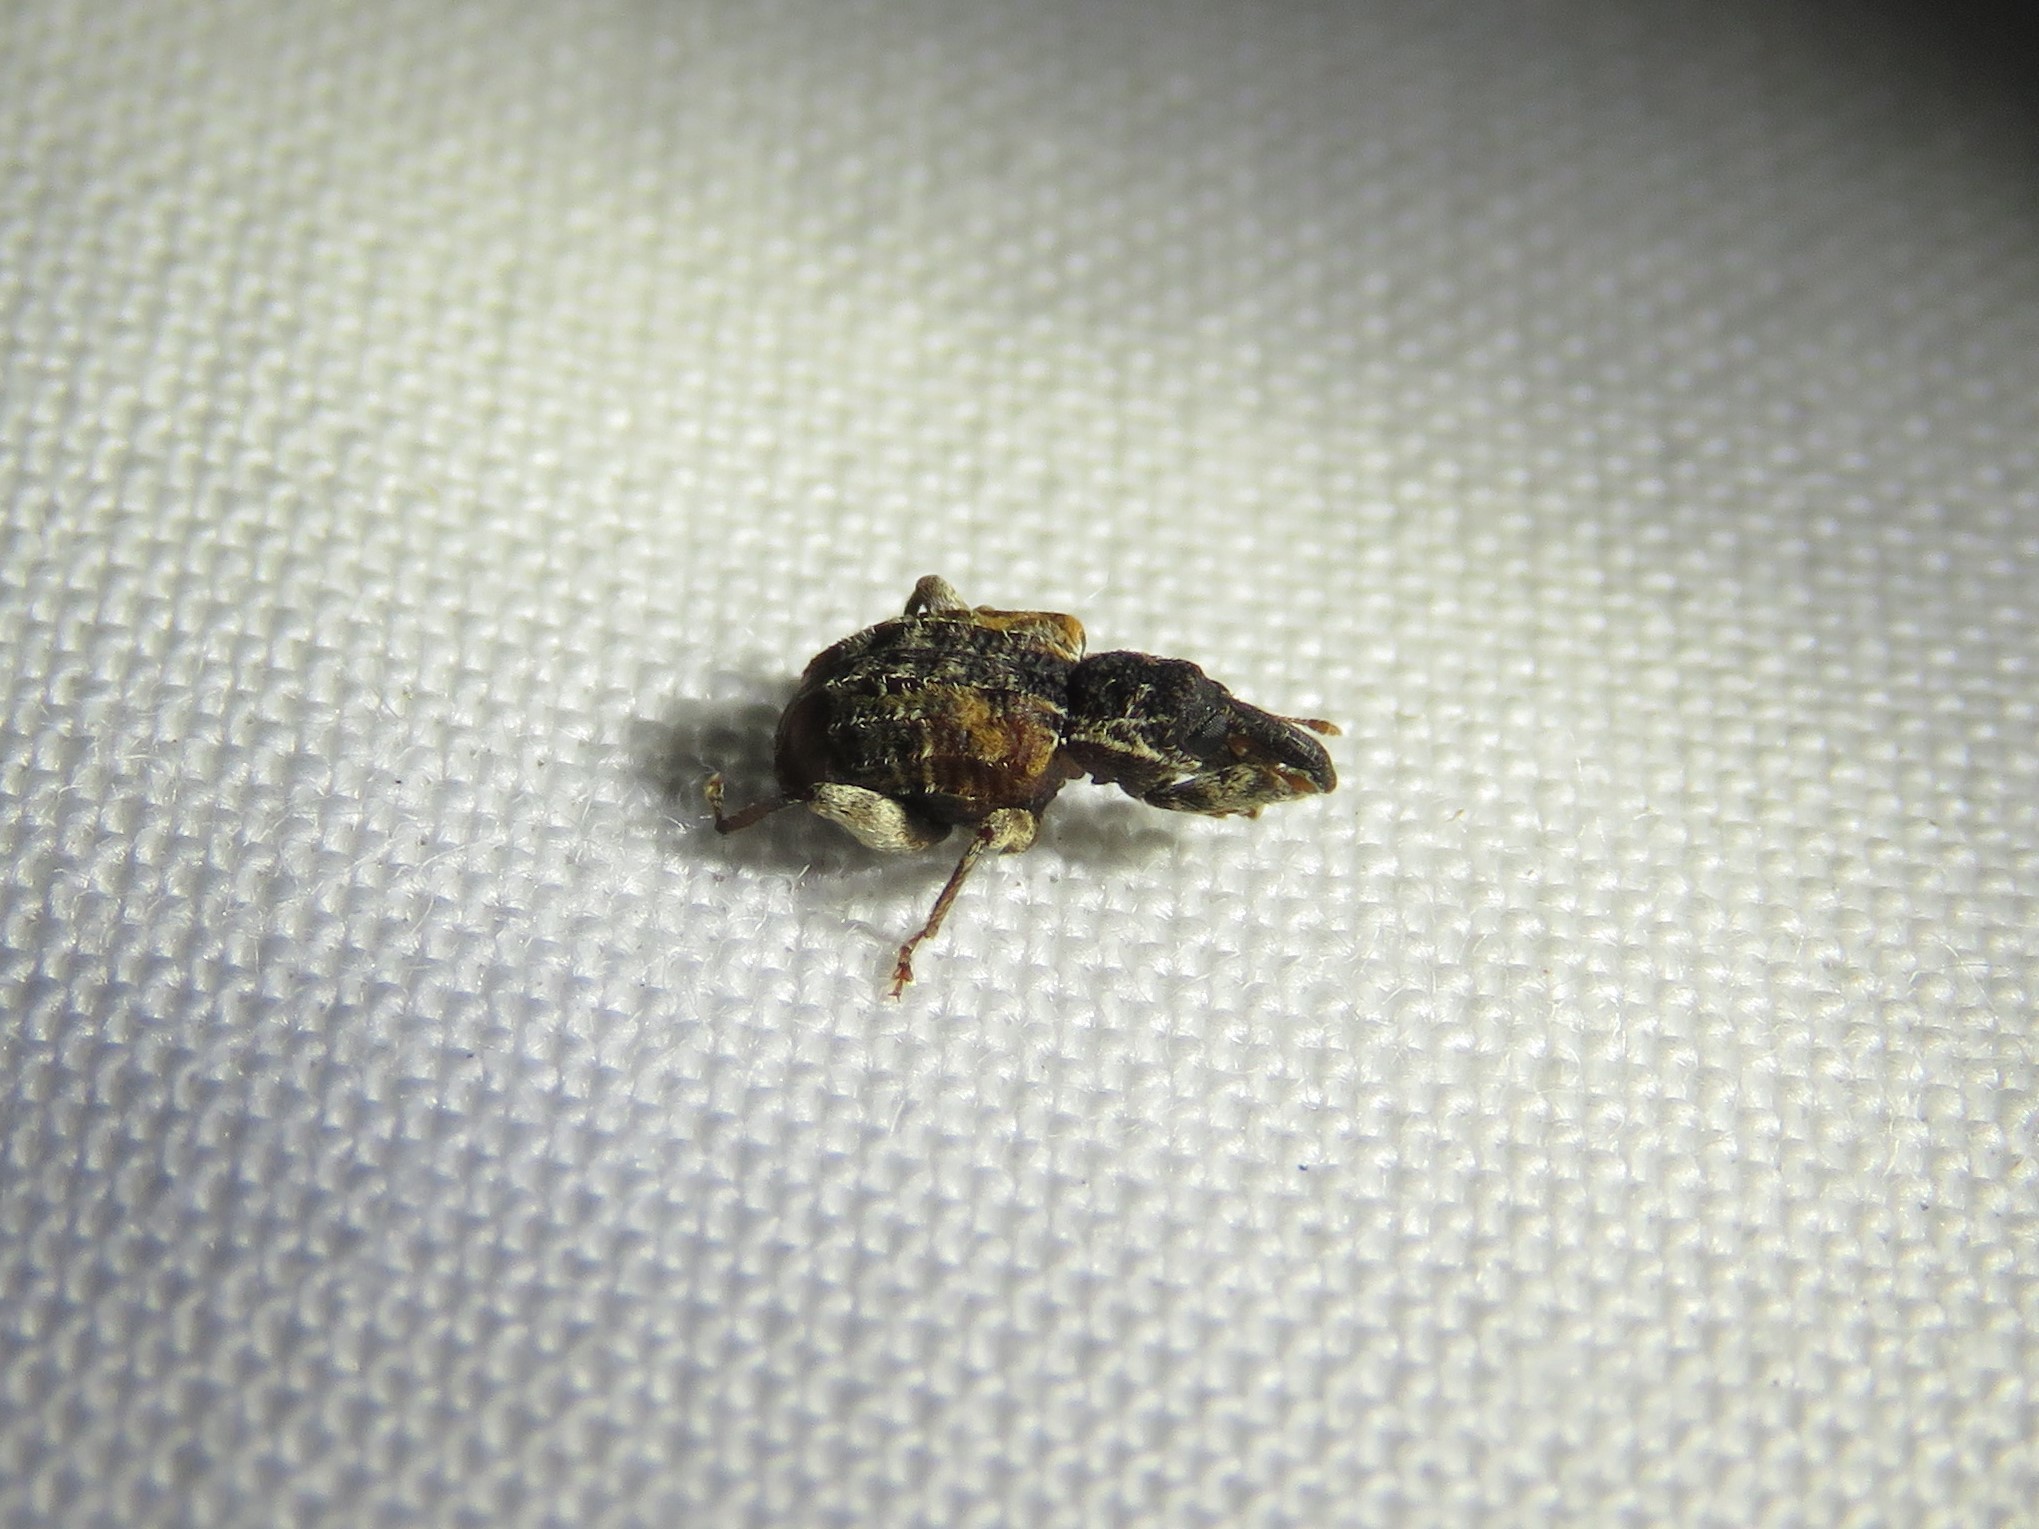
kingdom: Animalia
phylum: Arthropoda
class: Insecta
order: Coleoptera
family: Curculionidae
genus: Conotrachelus
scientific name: Conotrachelus anaglypticus
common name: Cambium curculio
